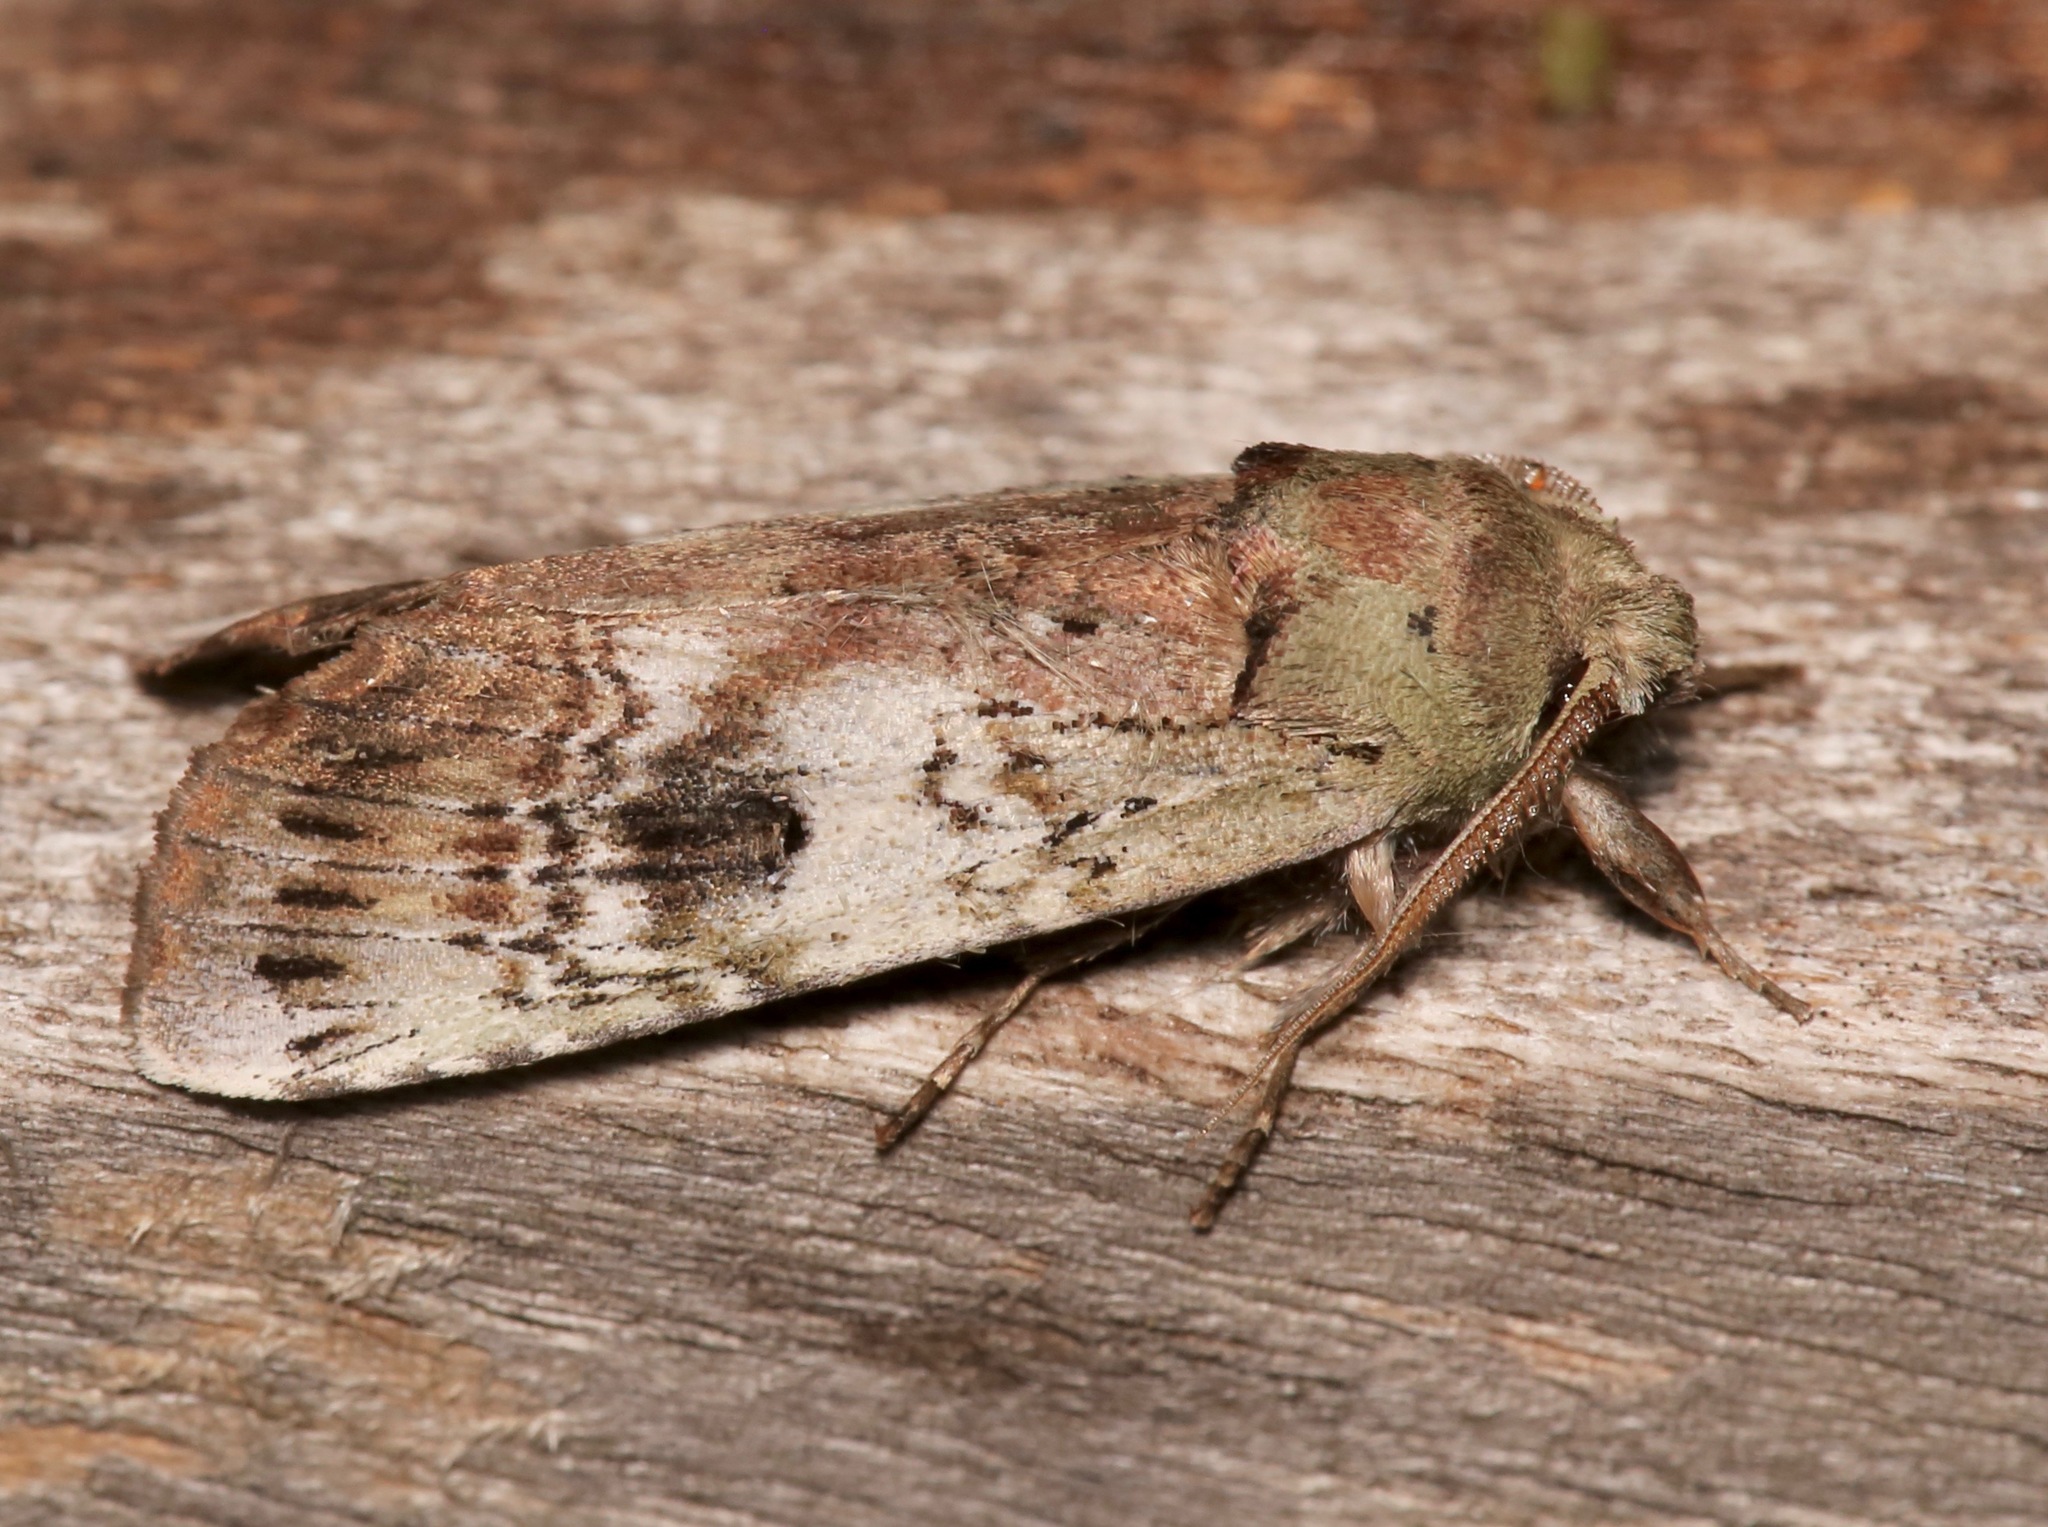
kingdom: Animalia
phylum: Arthropoda
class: Insecta
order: Lepidoptera
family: Notodontidae
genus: Schizura
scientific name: Schizura
